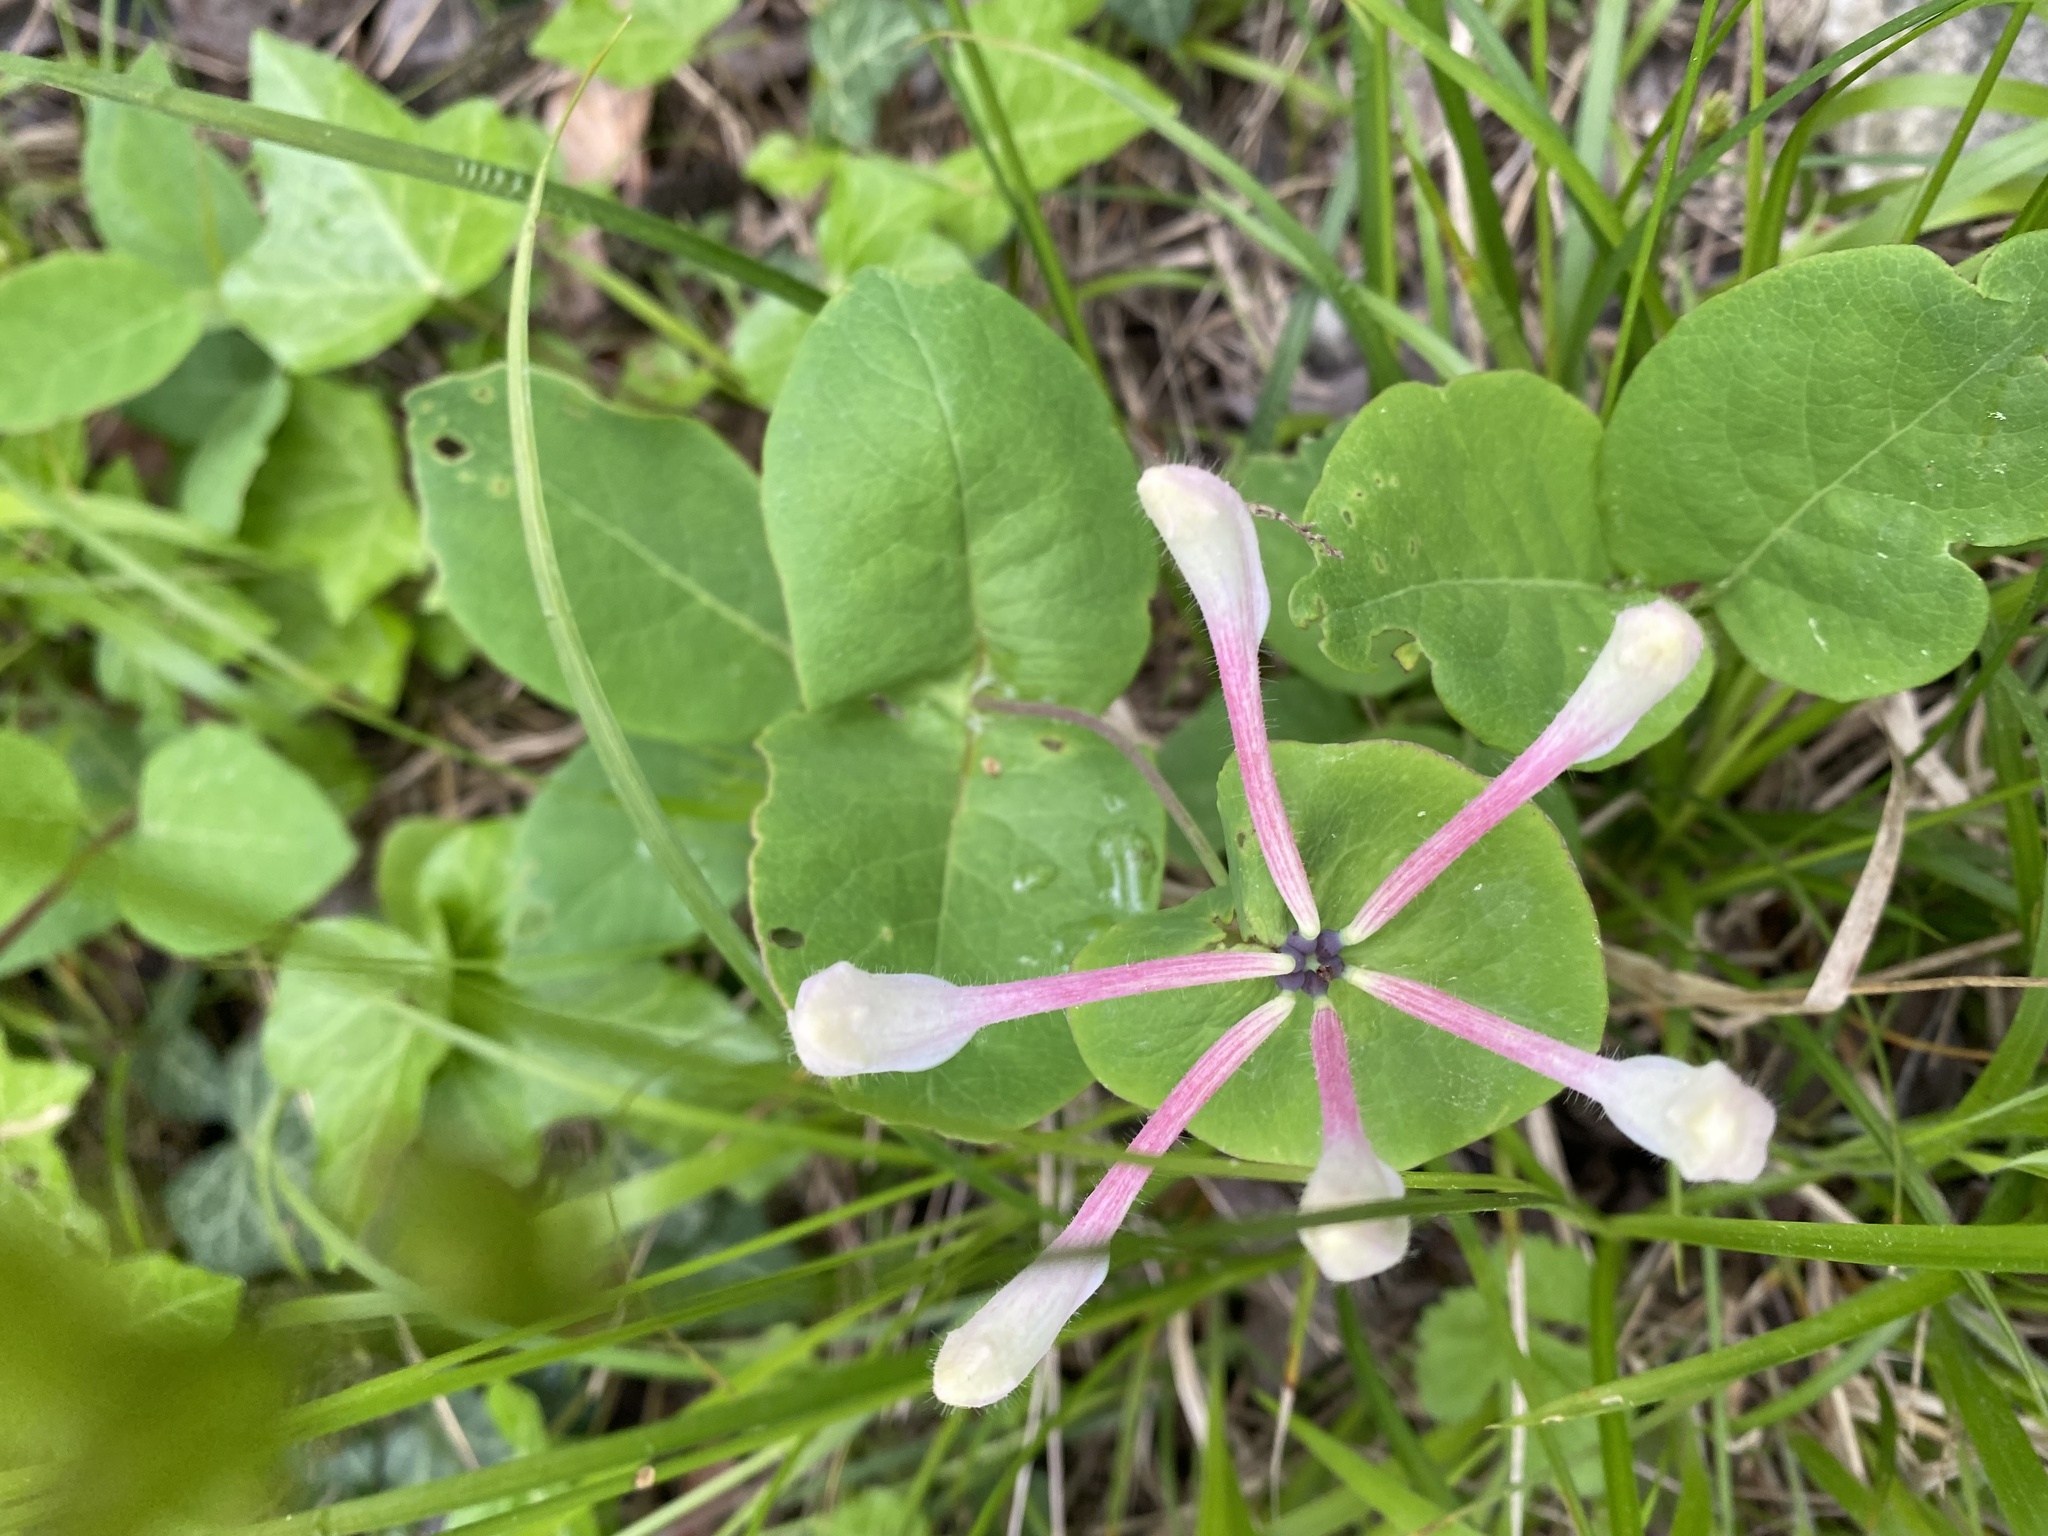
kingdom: Plantae
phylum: Tracheophyta
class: Magnoliopsida
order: Dipsacales
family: Caprifoliaceae
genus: Lonicera
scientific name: Lonicera caprifolium
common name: Perfoliate honeysuckle
